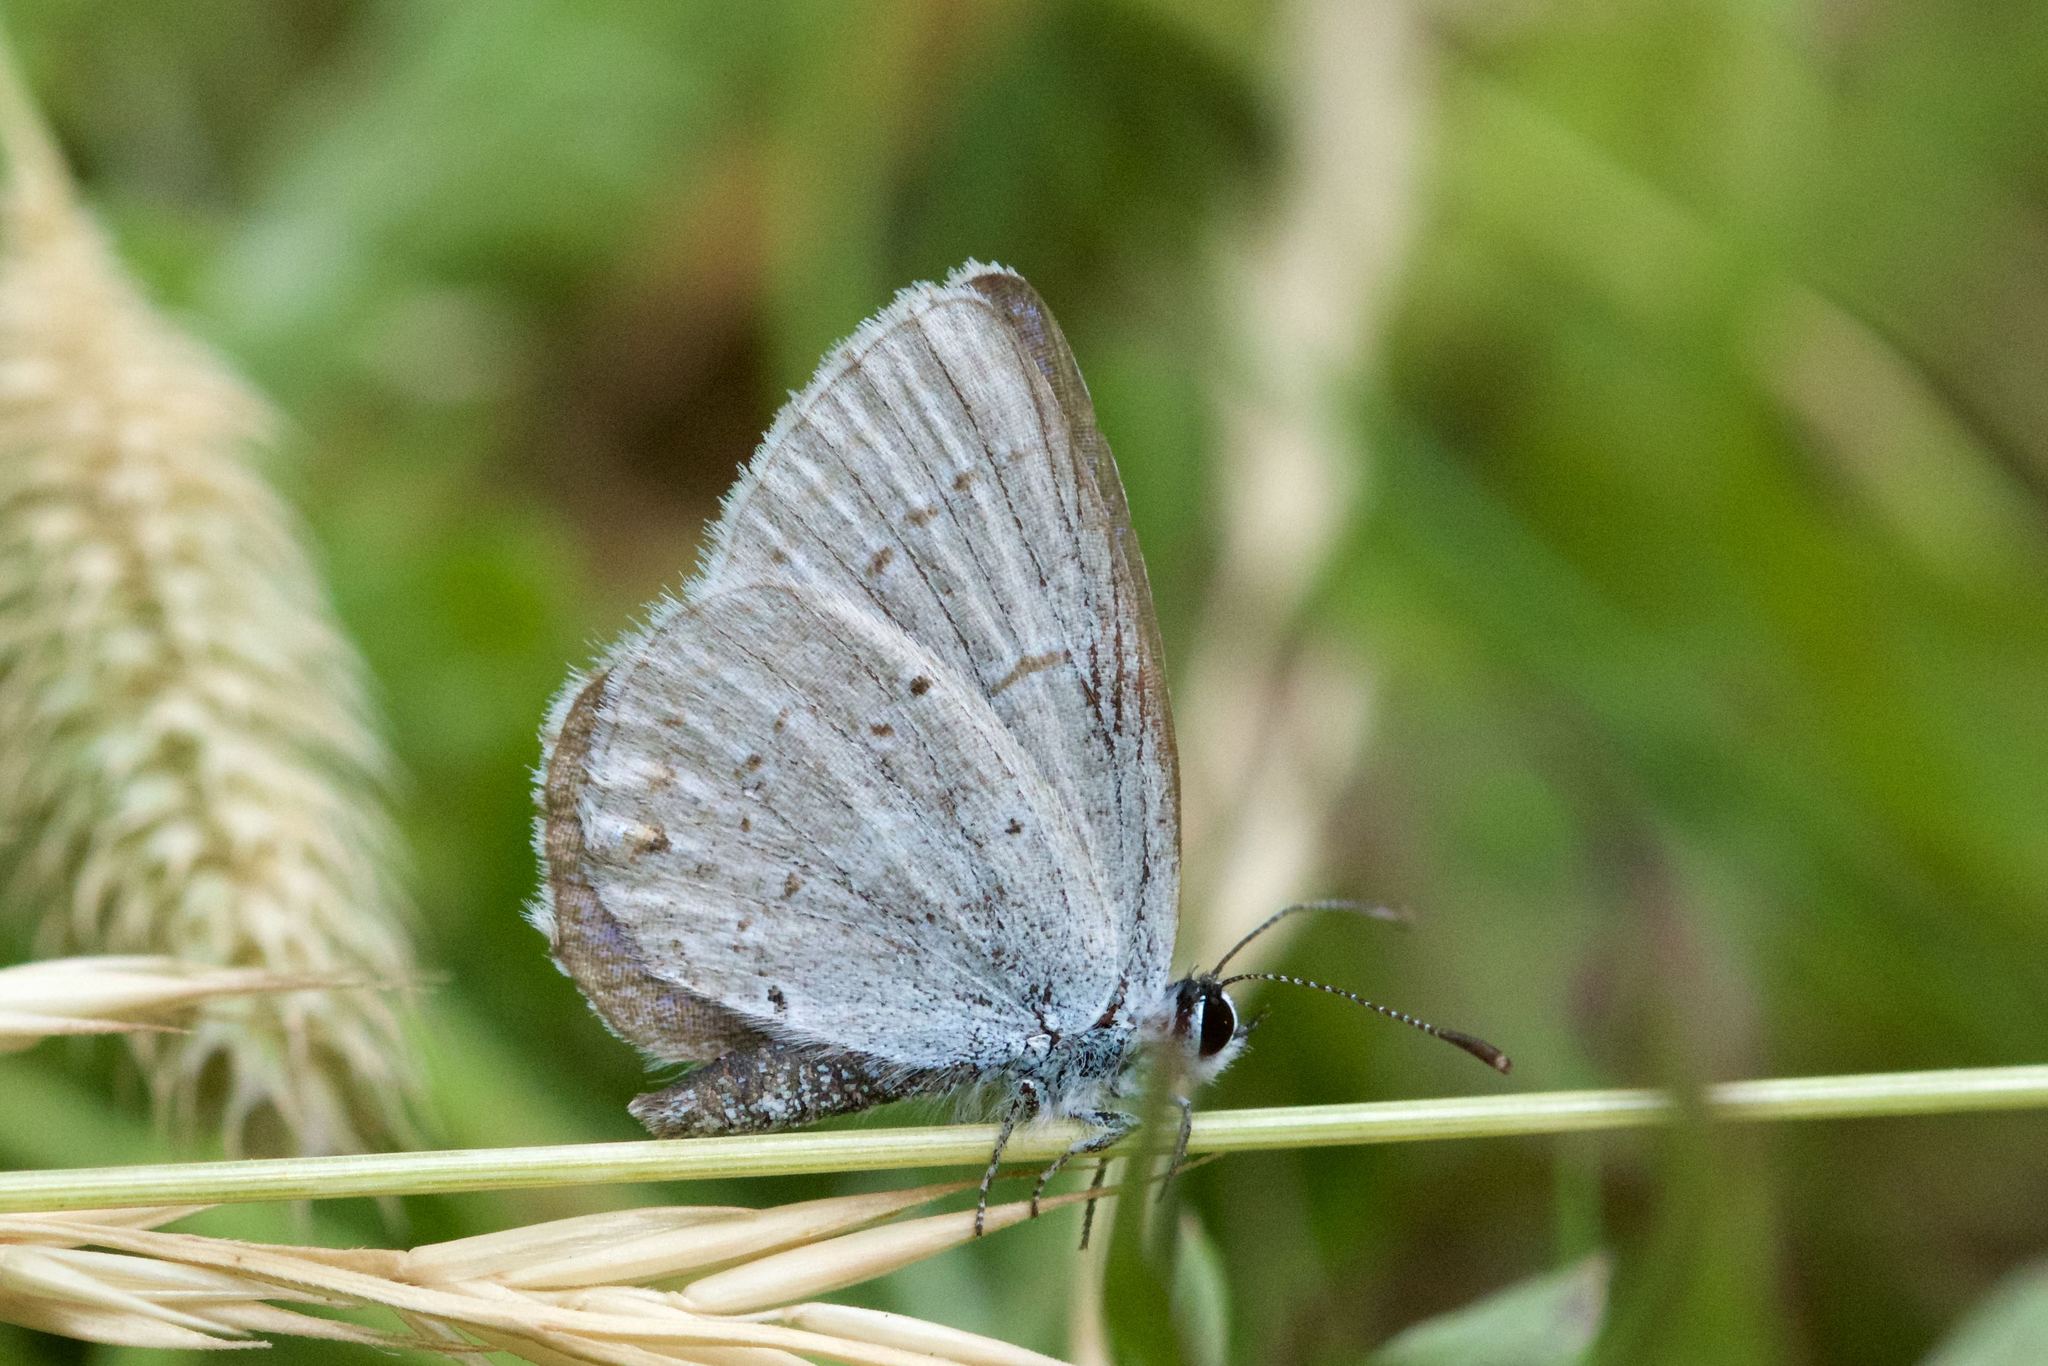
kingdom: Animalia
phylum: Arthropoda
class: Insecta
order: Lepidoptera
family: Lycaenidae
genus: Elkalyce
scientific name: Elkalyce amyntula
